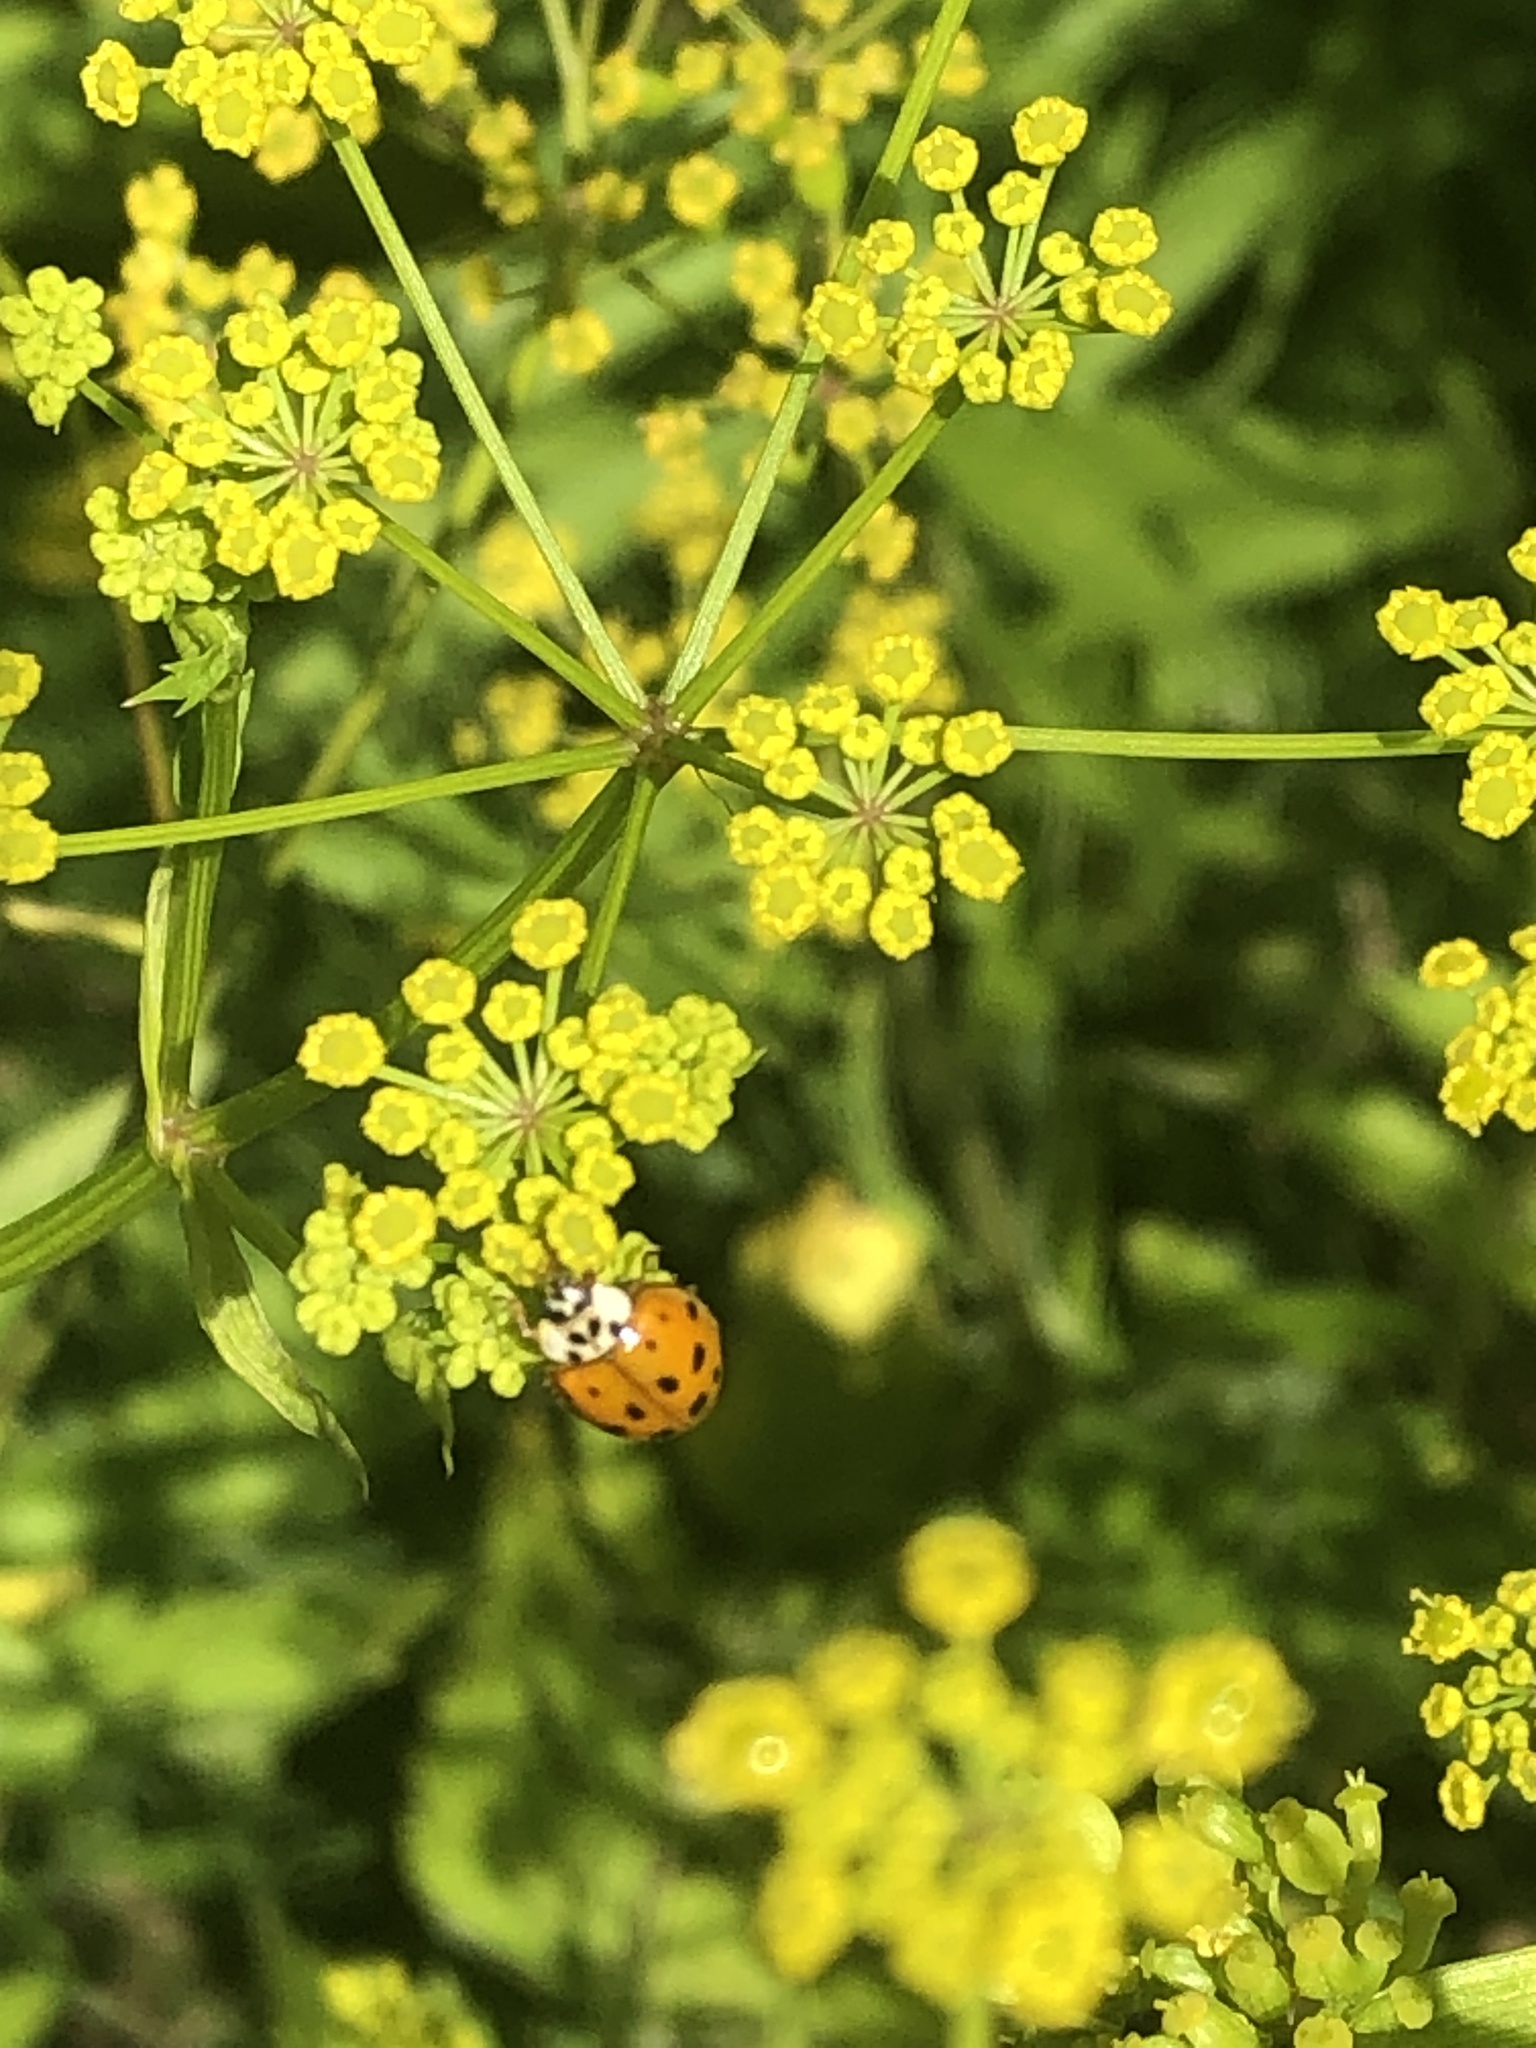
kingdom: Animalia
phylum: Arthropoda
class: Insecta
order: Coleoptera
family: Coccinellidae
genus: Harmonia
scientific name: Harmonia axyridis
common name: Harlequin ladybird
